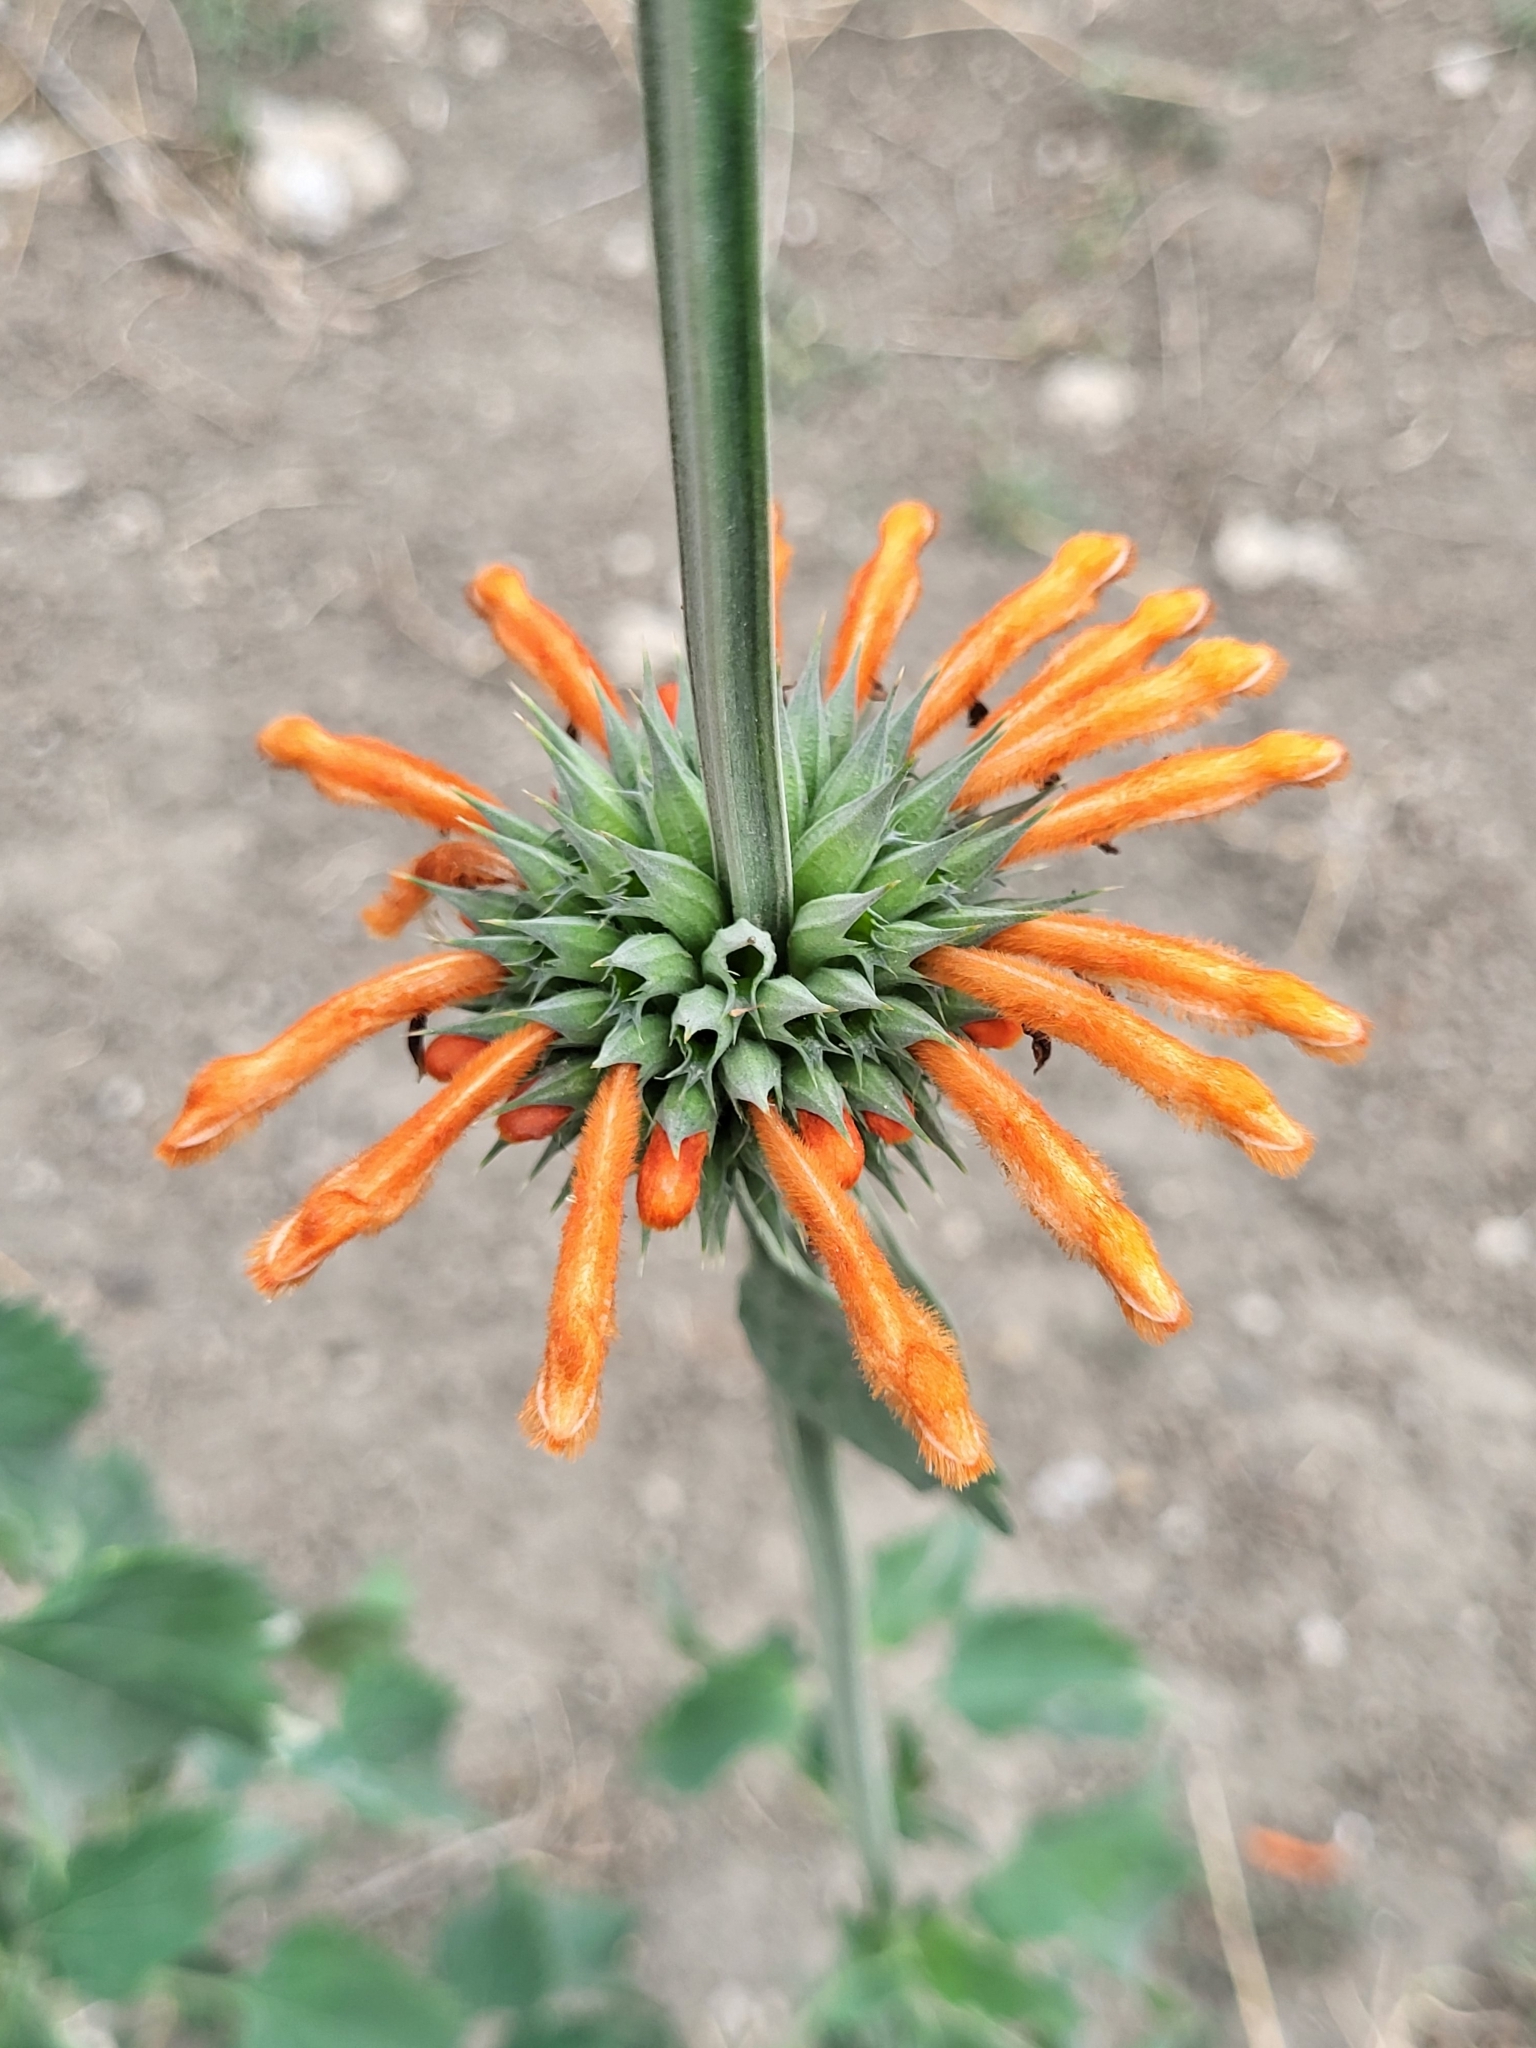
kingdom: Plantae
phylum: Tracheophyta
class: Magnoliopsida
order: Lamiales
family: Lamiaceae
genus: Leonotis
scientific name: Leonotis nepetifolia
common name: Christmas candlestick
